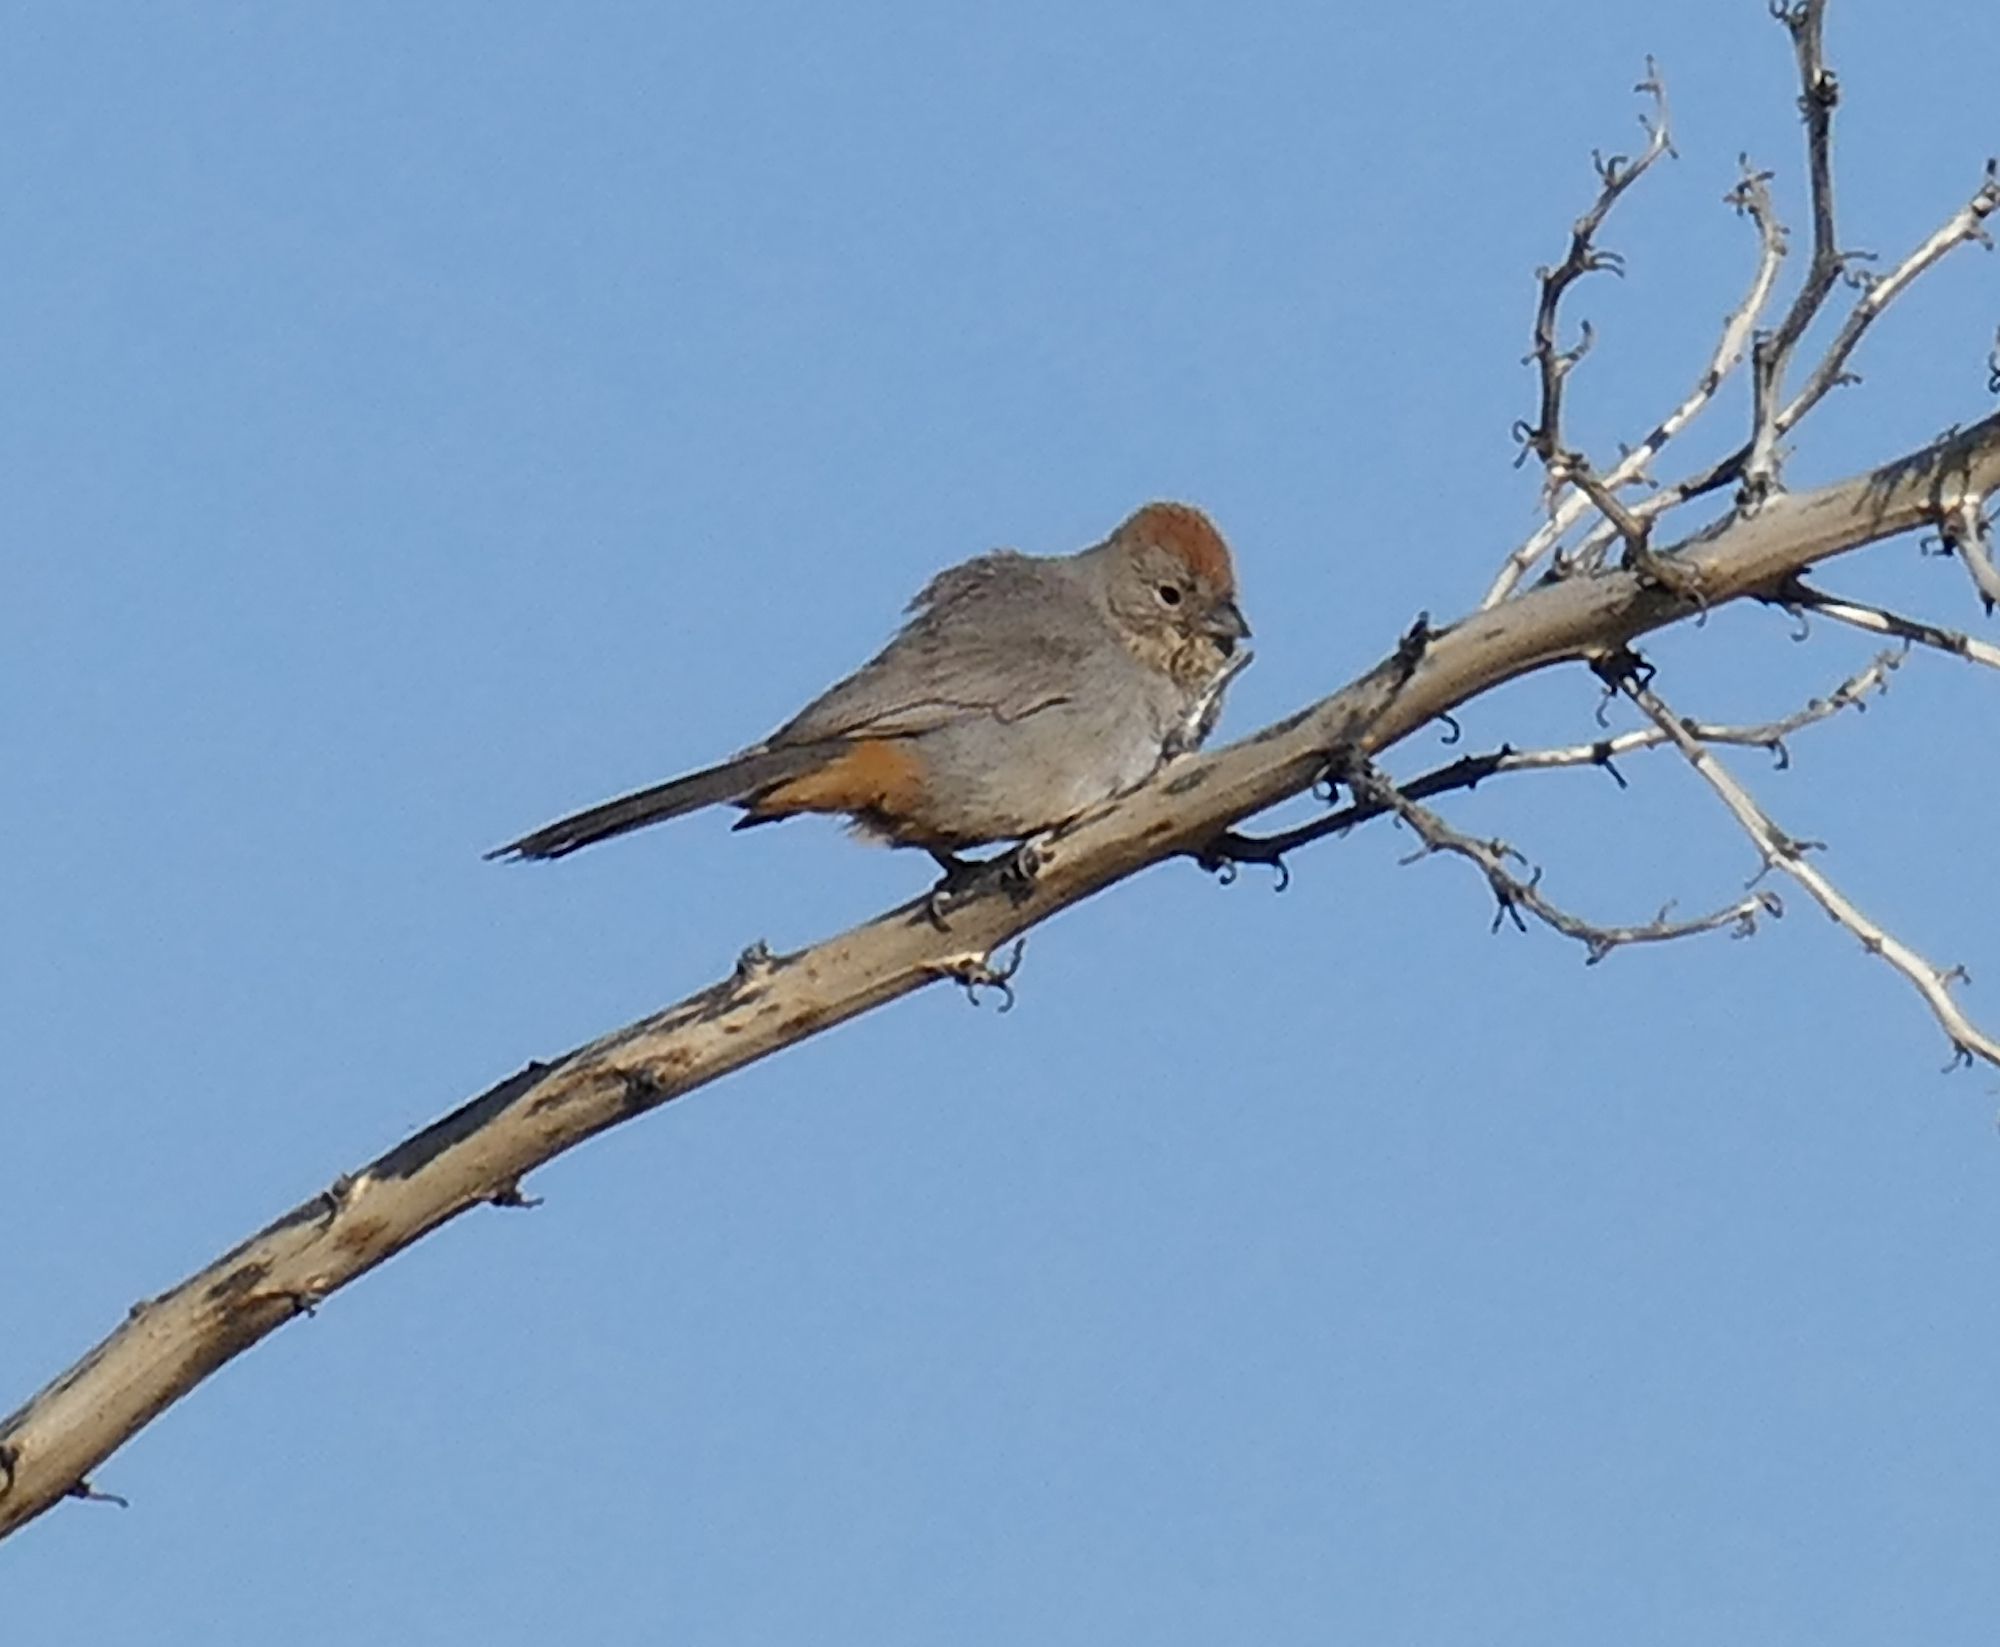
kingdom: Animalia
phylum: Chordata
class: Aves
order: Passeriformes
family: Passerellidae
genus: Melozone
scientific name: Melozone fusca
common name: Canyon towhee
